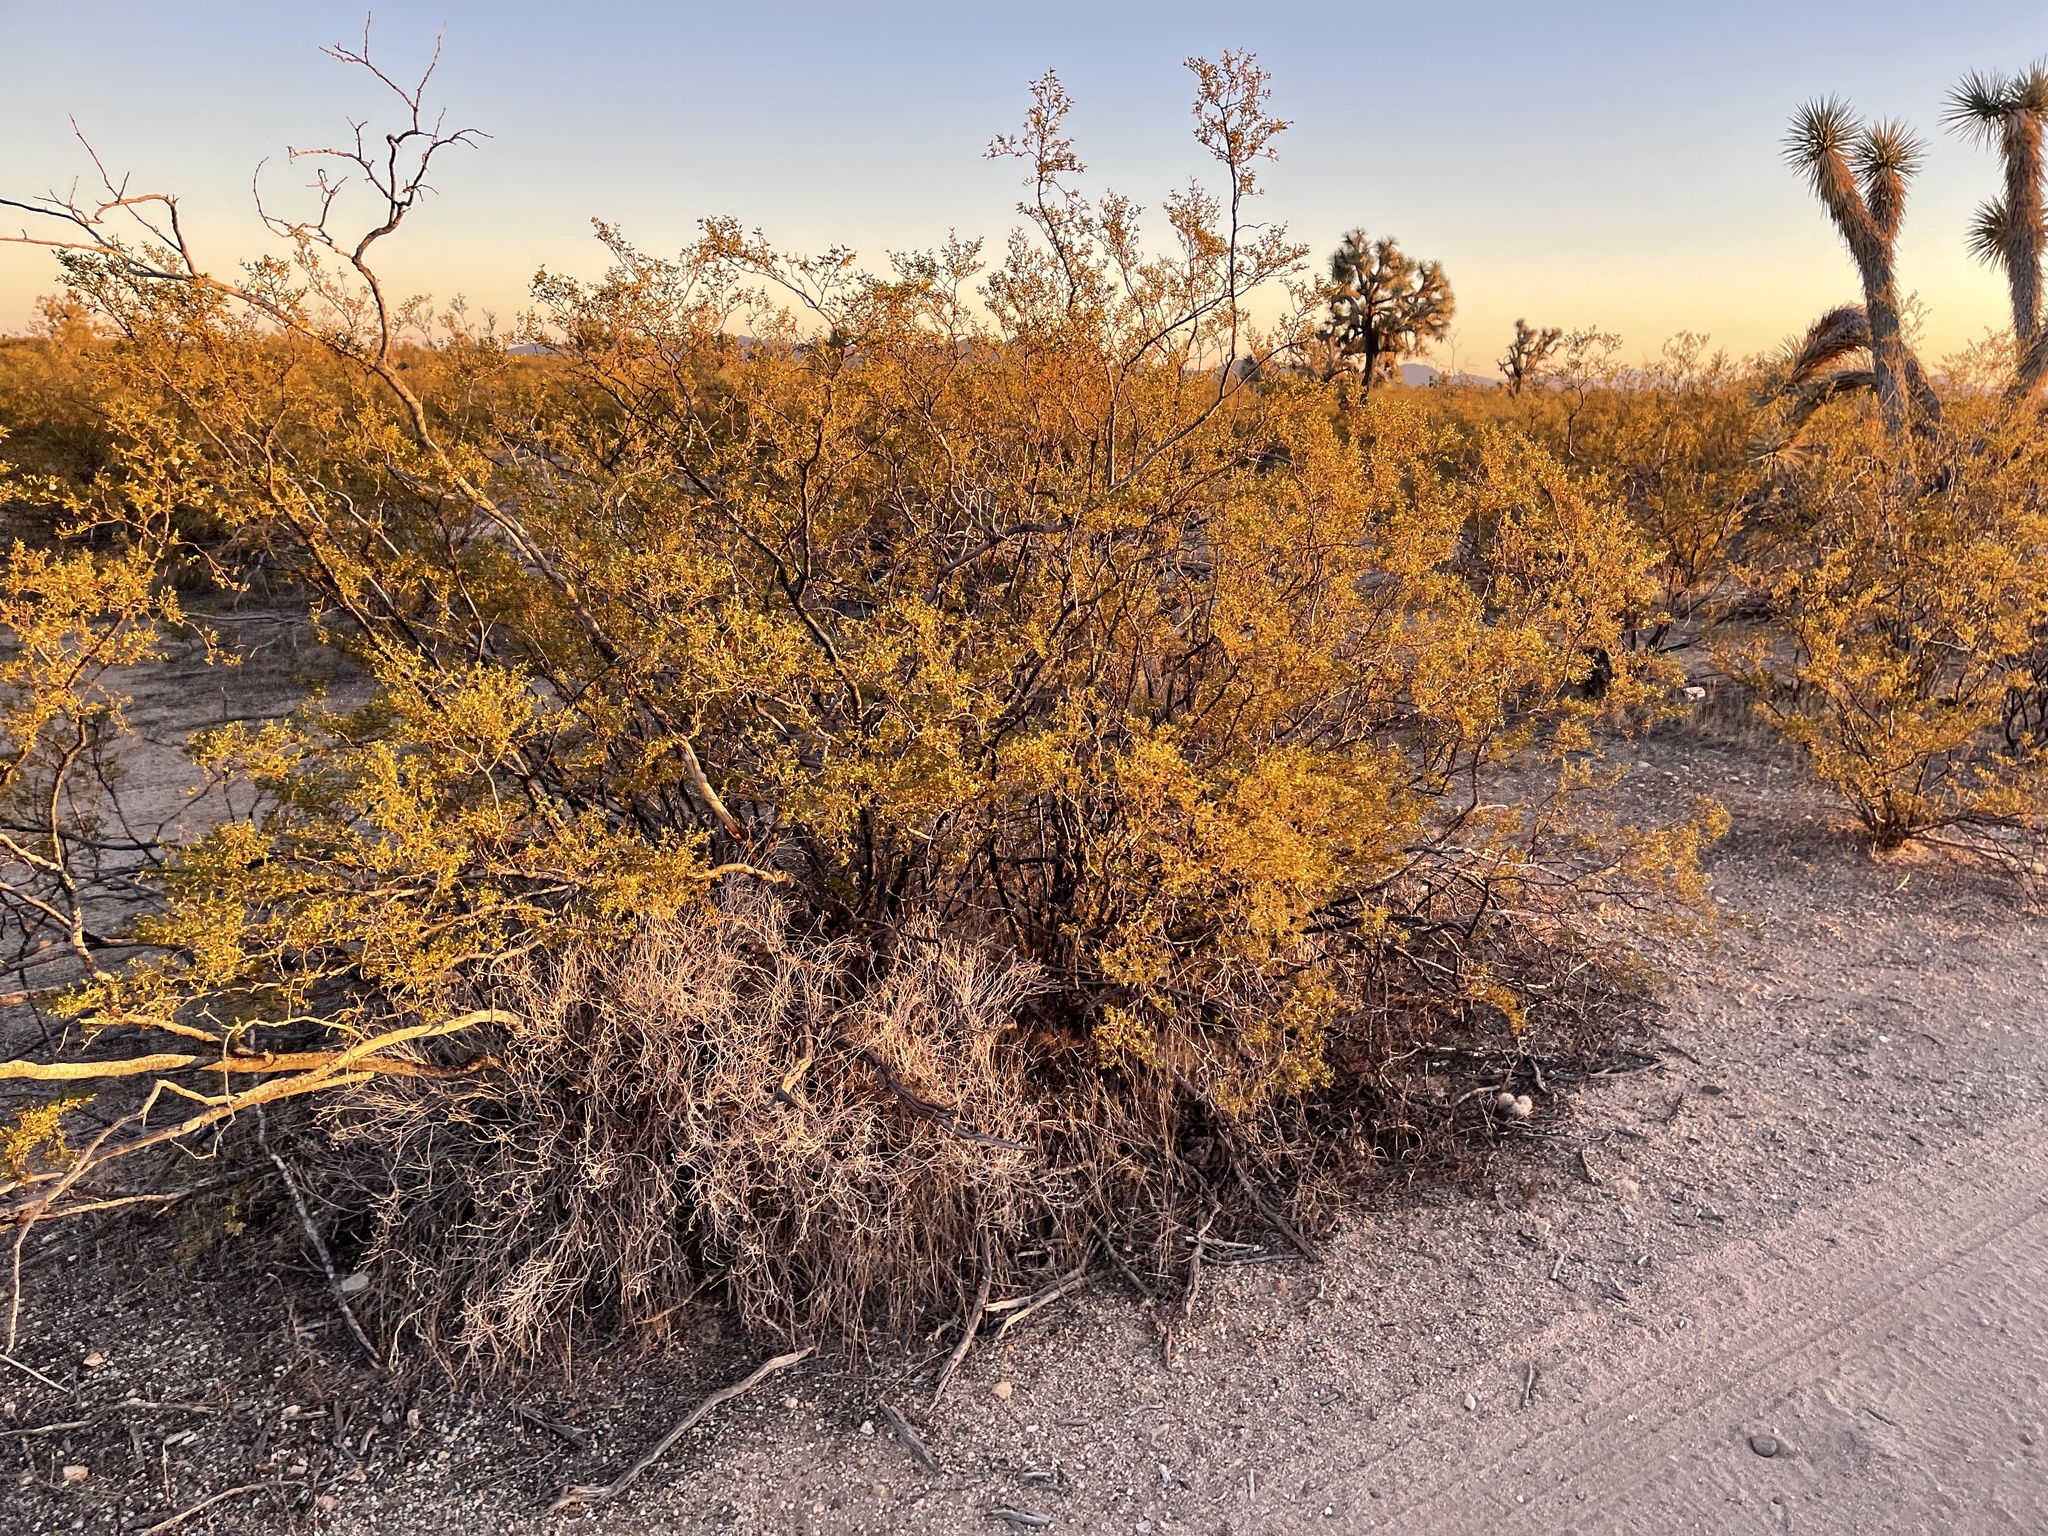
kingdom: Plantae
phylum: Tracheophyta
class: Magnoliopsida
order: Zygophyllales
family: Zygophyllaceae
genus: Larrea
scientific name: Larrea tridentata
